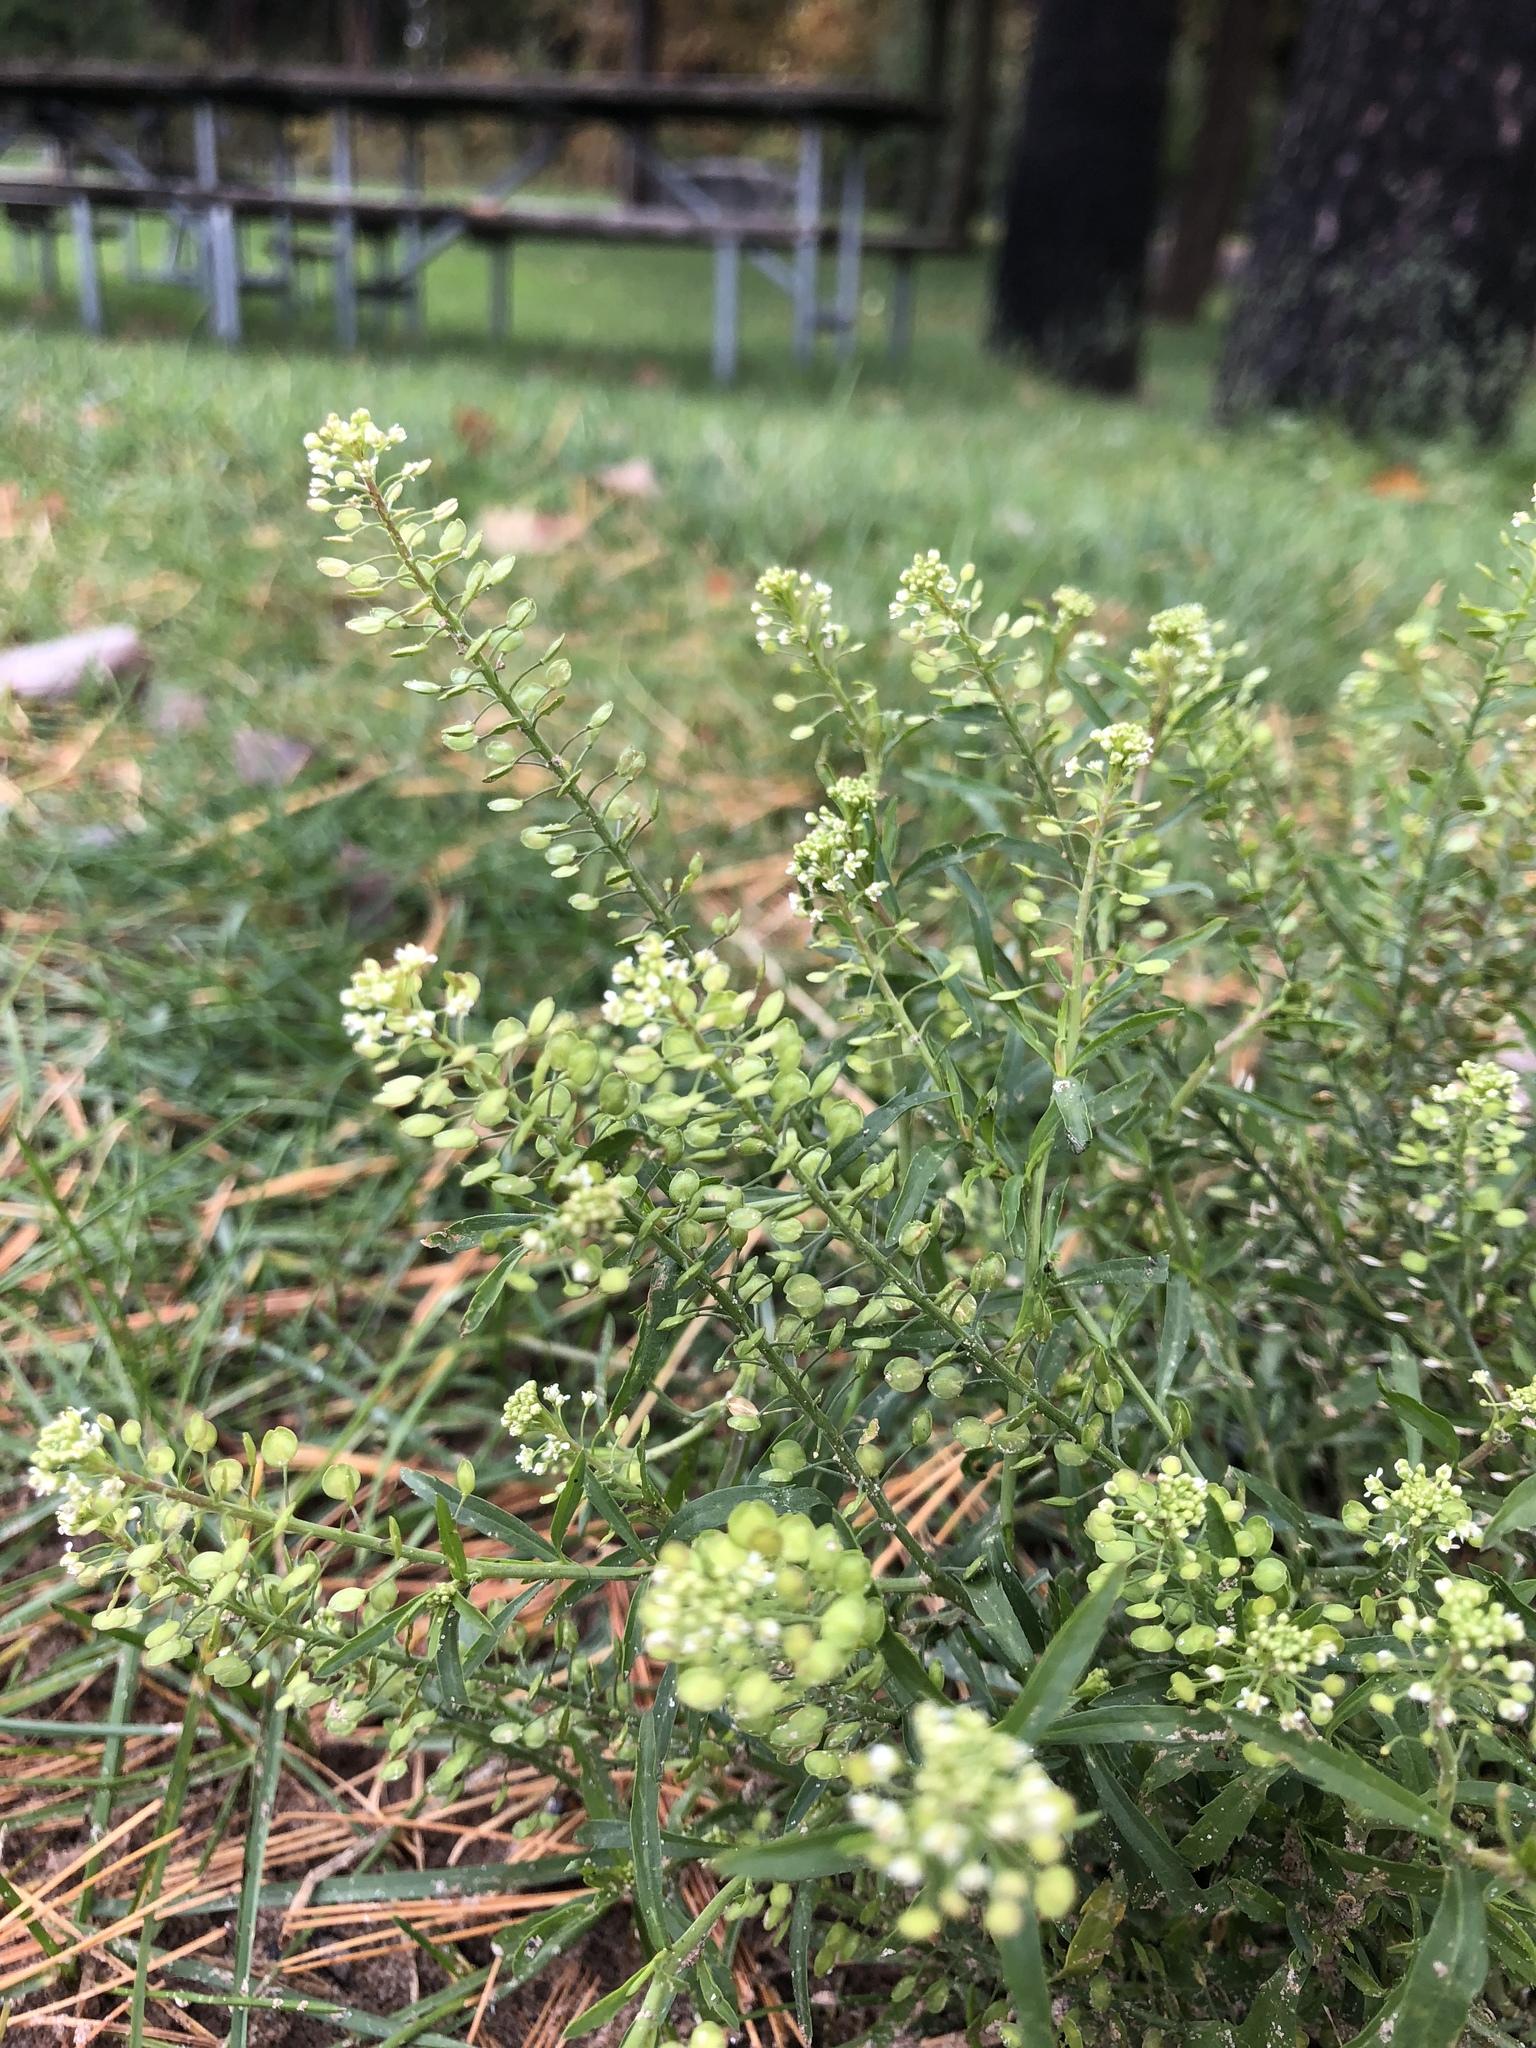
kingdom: Plantae
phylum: Tracheophyta
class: Magnoliopsida
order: Brassicales
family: Brassicaceae
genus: Lepidium
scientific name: Lepidium virginicum
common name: Least pepperwort
